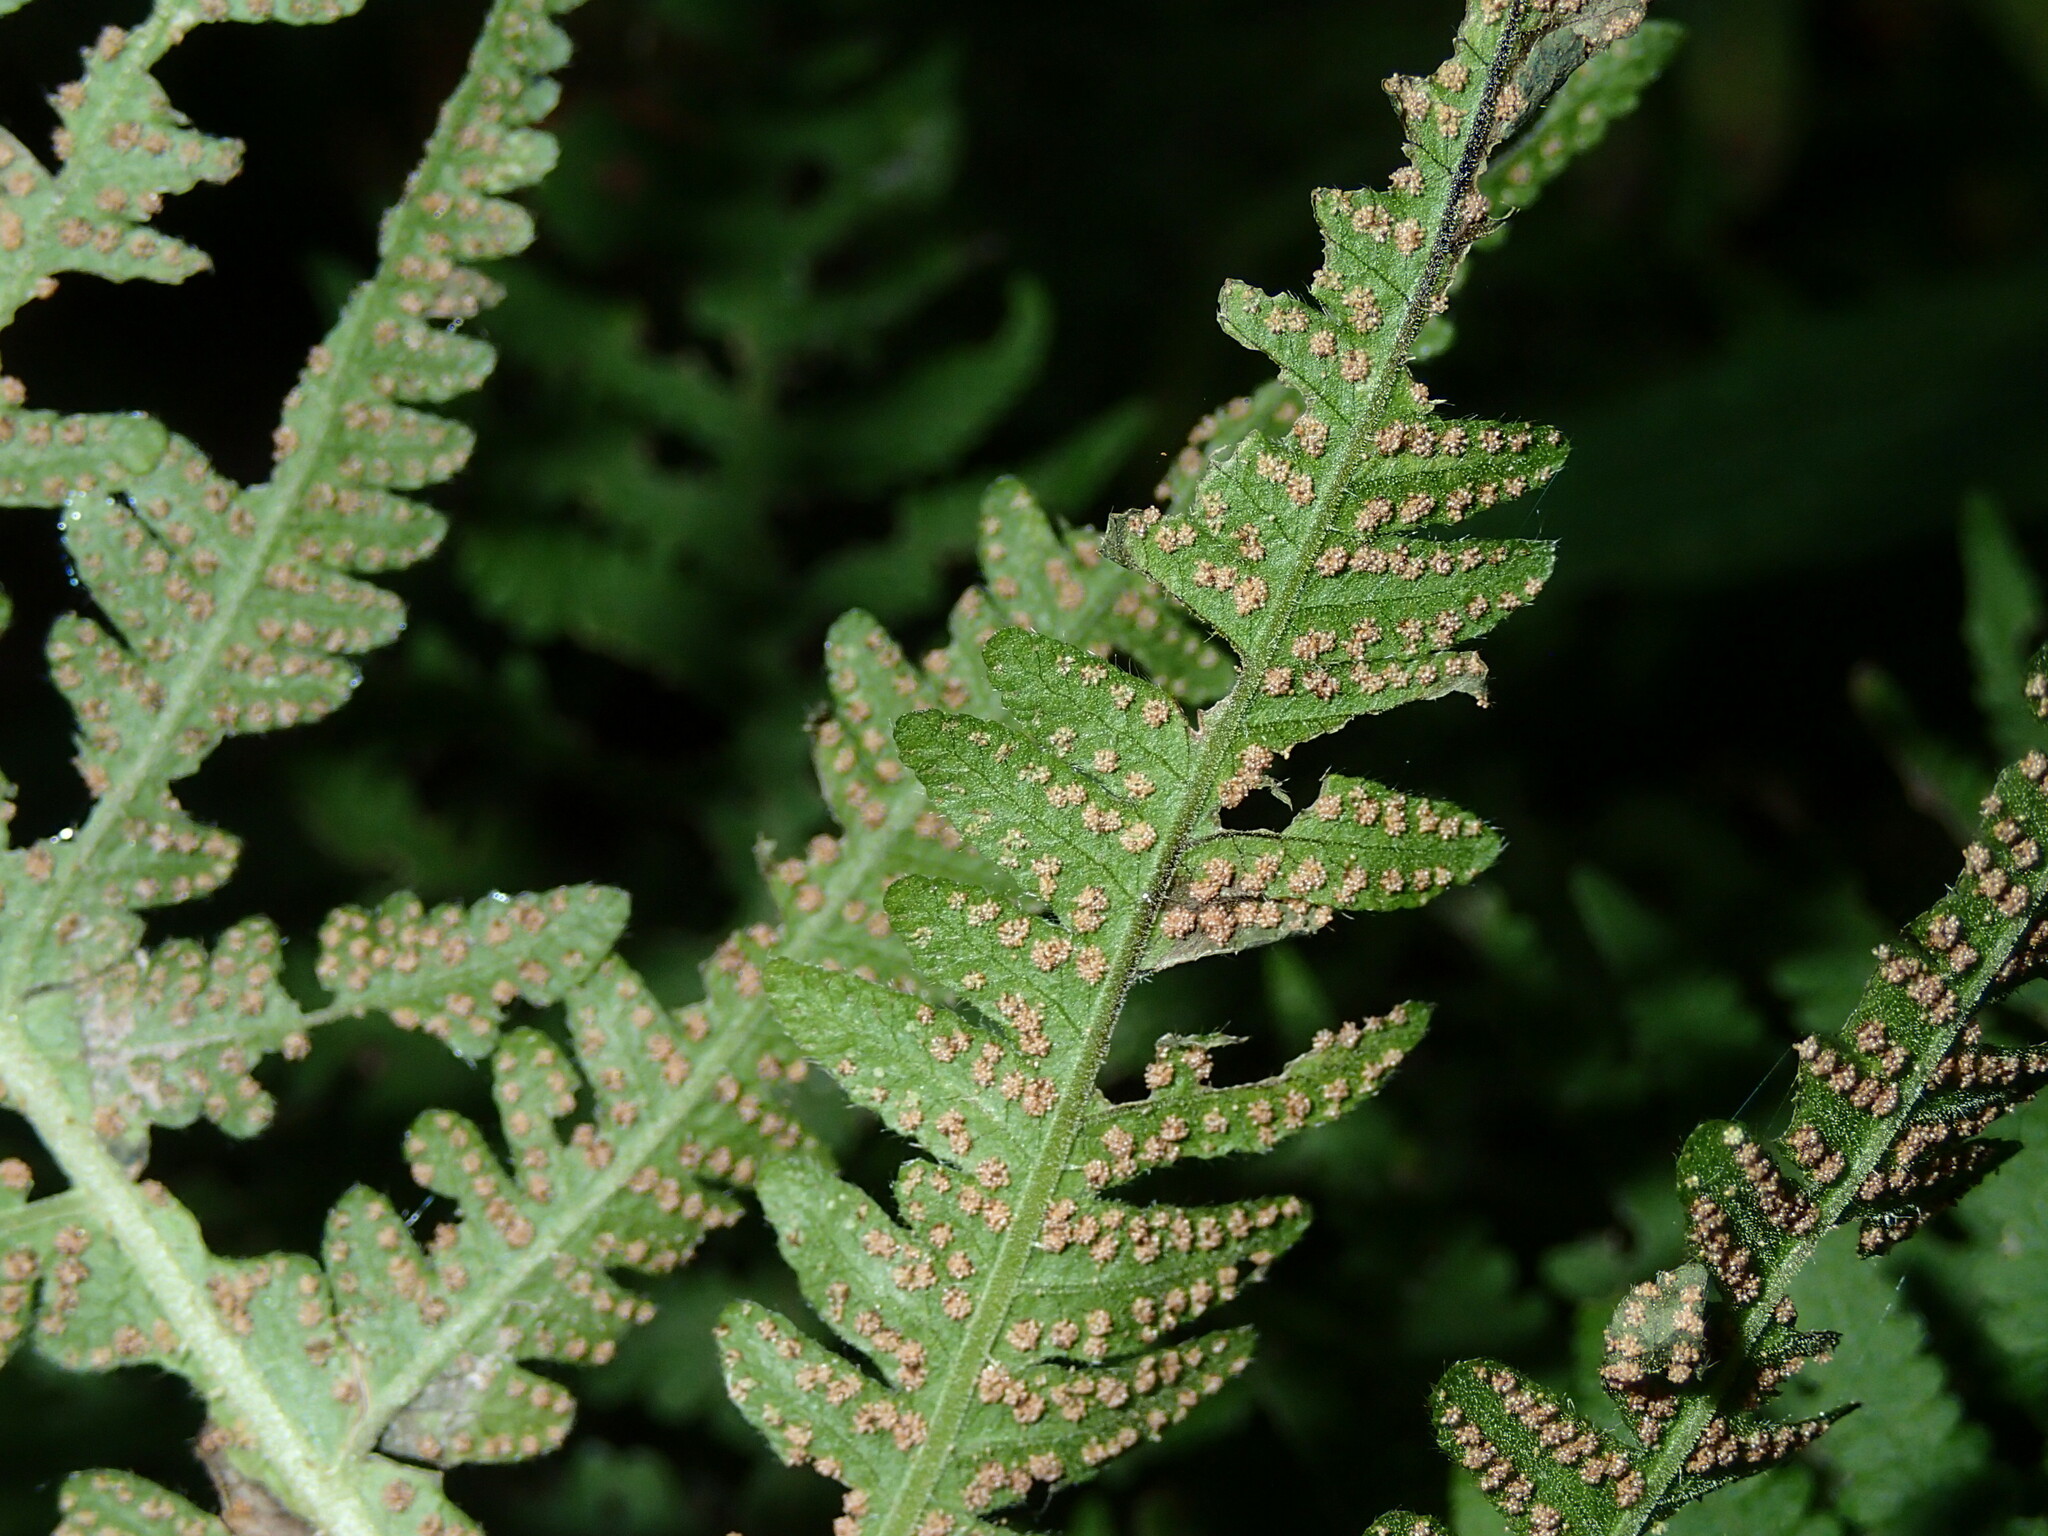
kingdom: Plantae
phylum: Tracheophyta
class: Polypodiopsida
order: Polypodiales
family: Thelypteridaceae
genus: Phegopteris
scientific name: Phegopteris hexagonoptera
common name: Broad beech fern
